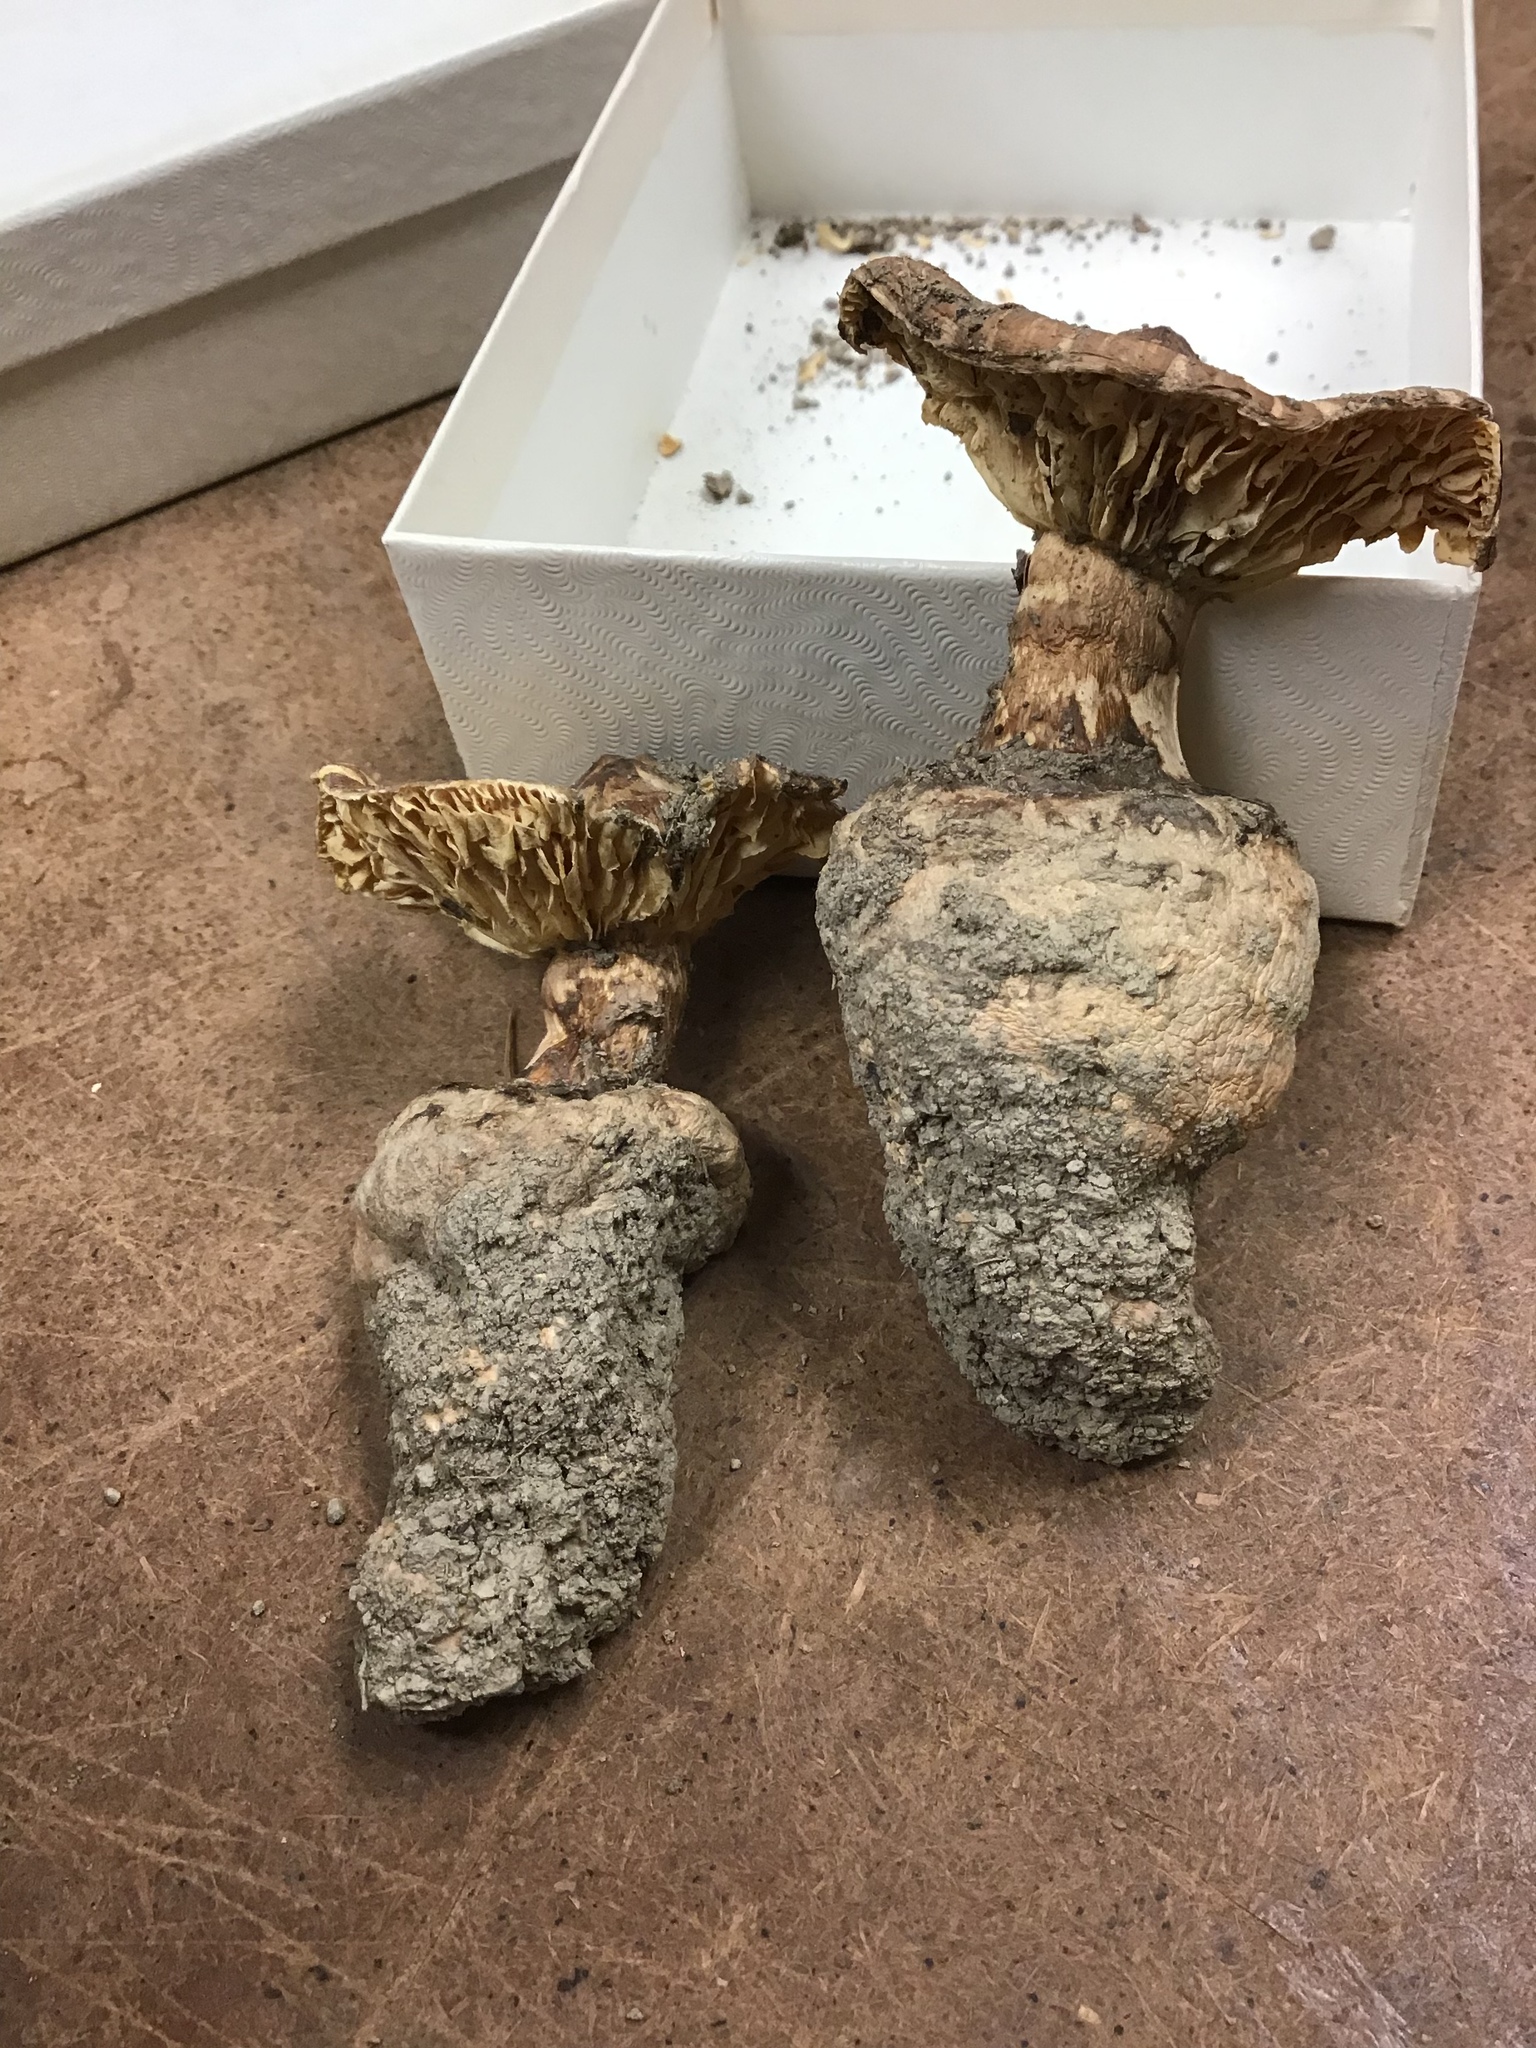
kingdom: Fungi
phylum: Basidiomycota
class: Agaricomycetes
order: Agaricales
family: Tricholomataceae
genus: Squamanita
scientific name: Squamanita umbonata
